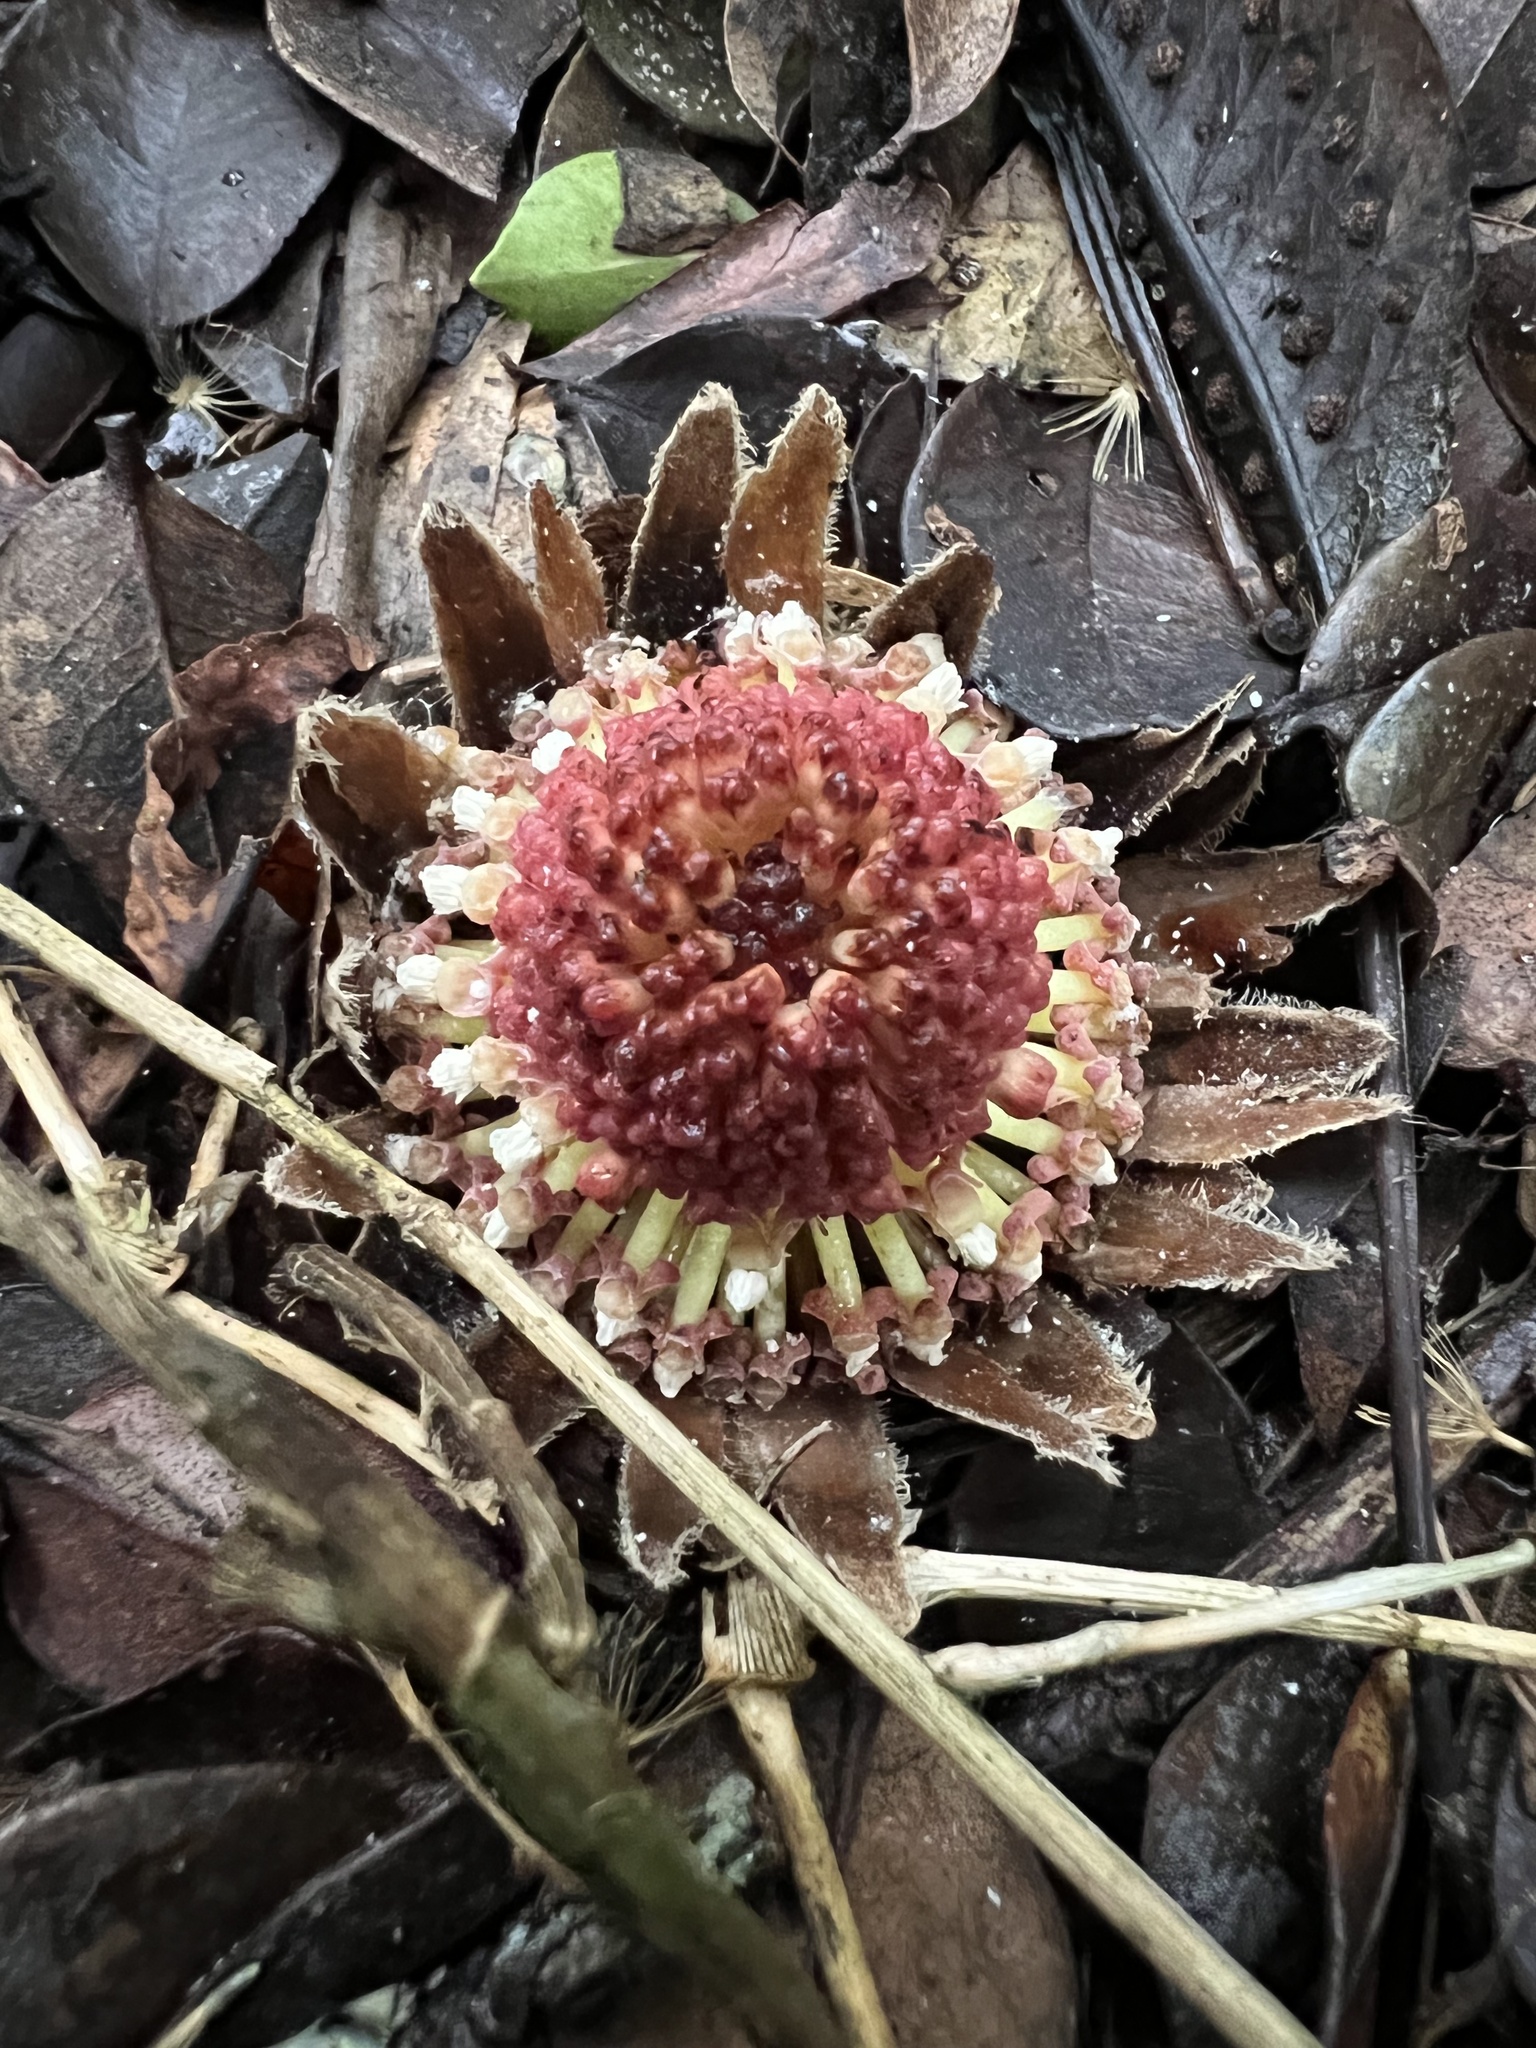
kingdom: Plantae
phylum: Tracheophyta
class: Magnoliopsida
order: Santalales
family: Balanophoraceae
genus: Langsdorffia
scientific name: Langsdorffia hypogaea
